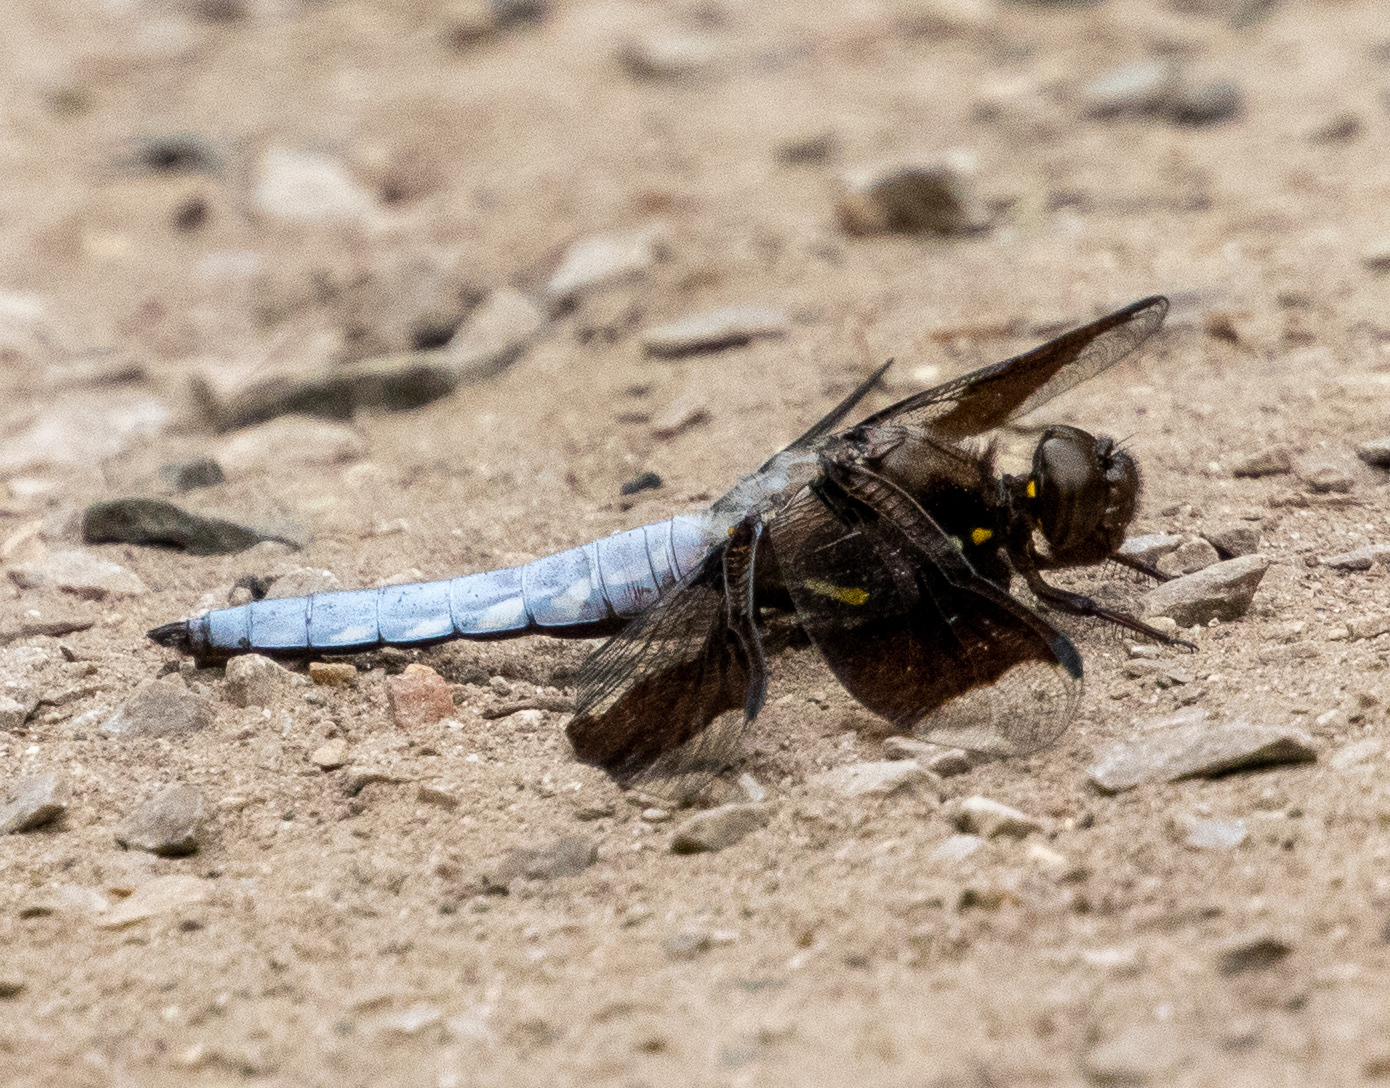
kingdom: Animalia
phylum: Arthropoda
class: Insecta
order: Odonata
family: Libellulidae
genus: Plathemis
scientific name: Plathemis lydia
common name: Common whitetail
